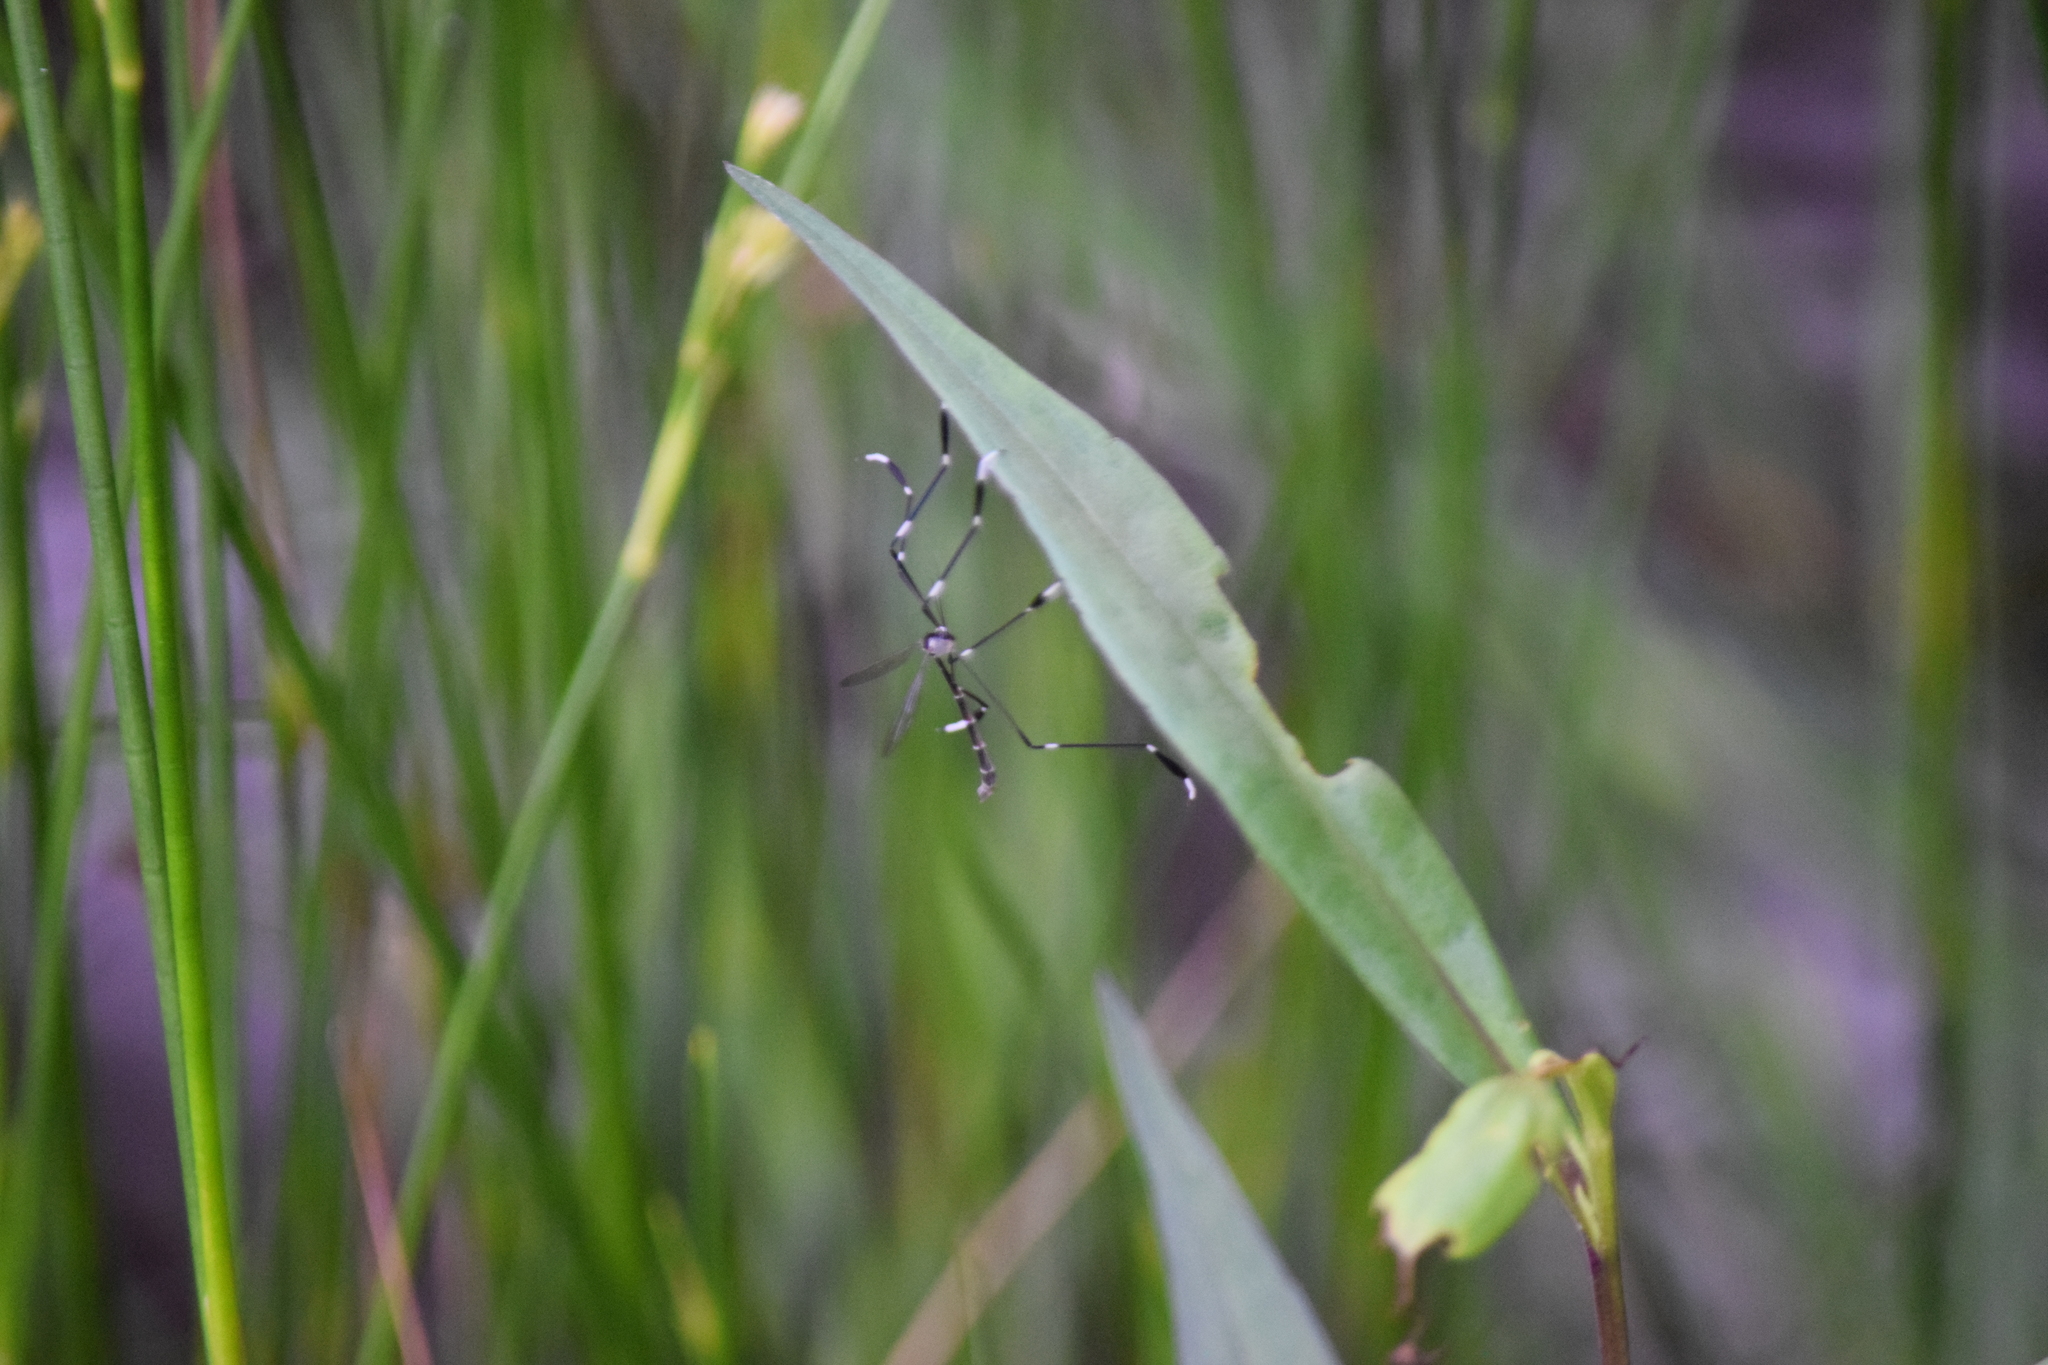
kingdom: Animalia
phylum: Arthropoda
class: Insecta
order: Diptera
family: Ptychopteridae
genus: Bittacomorpha
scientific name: Bittacomorpha clavipes
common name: Eastern phantom crane fly
